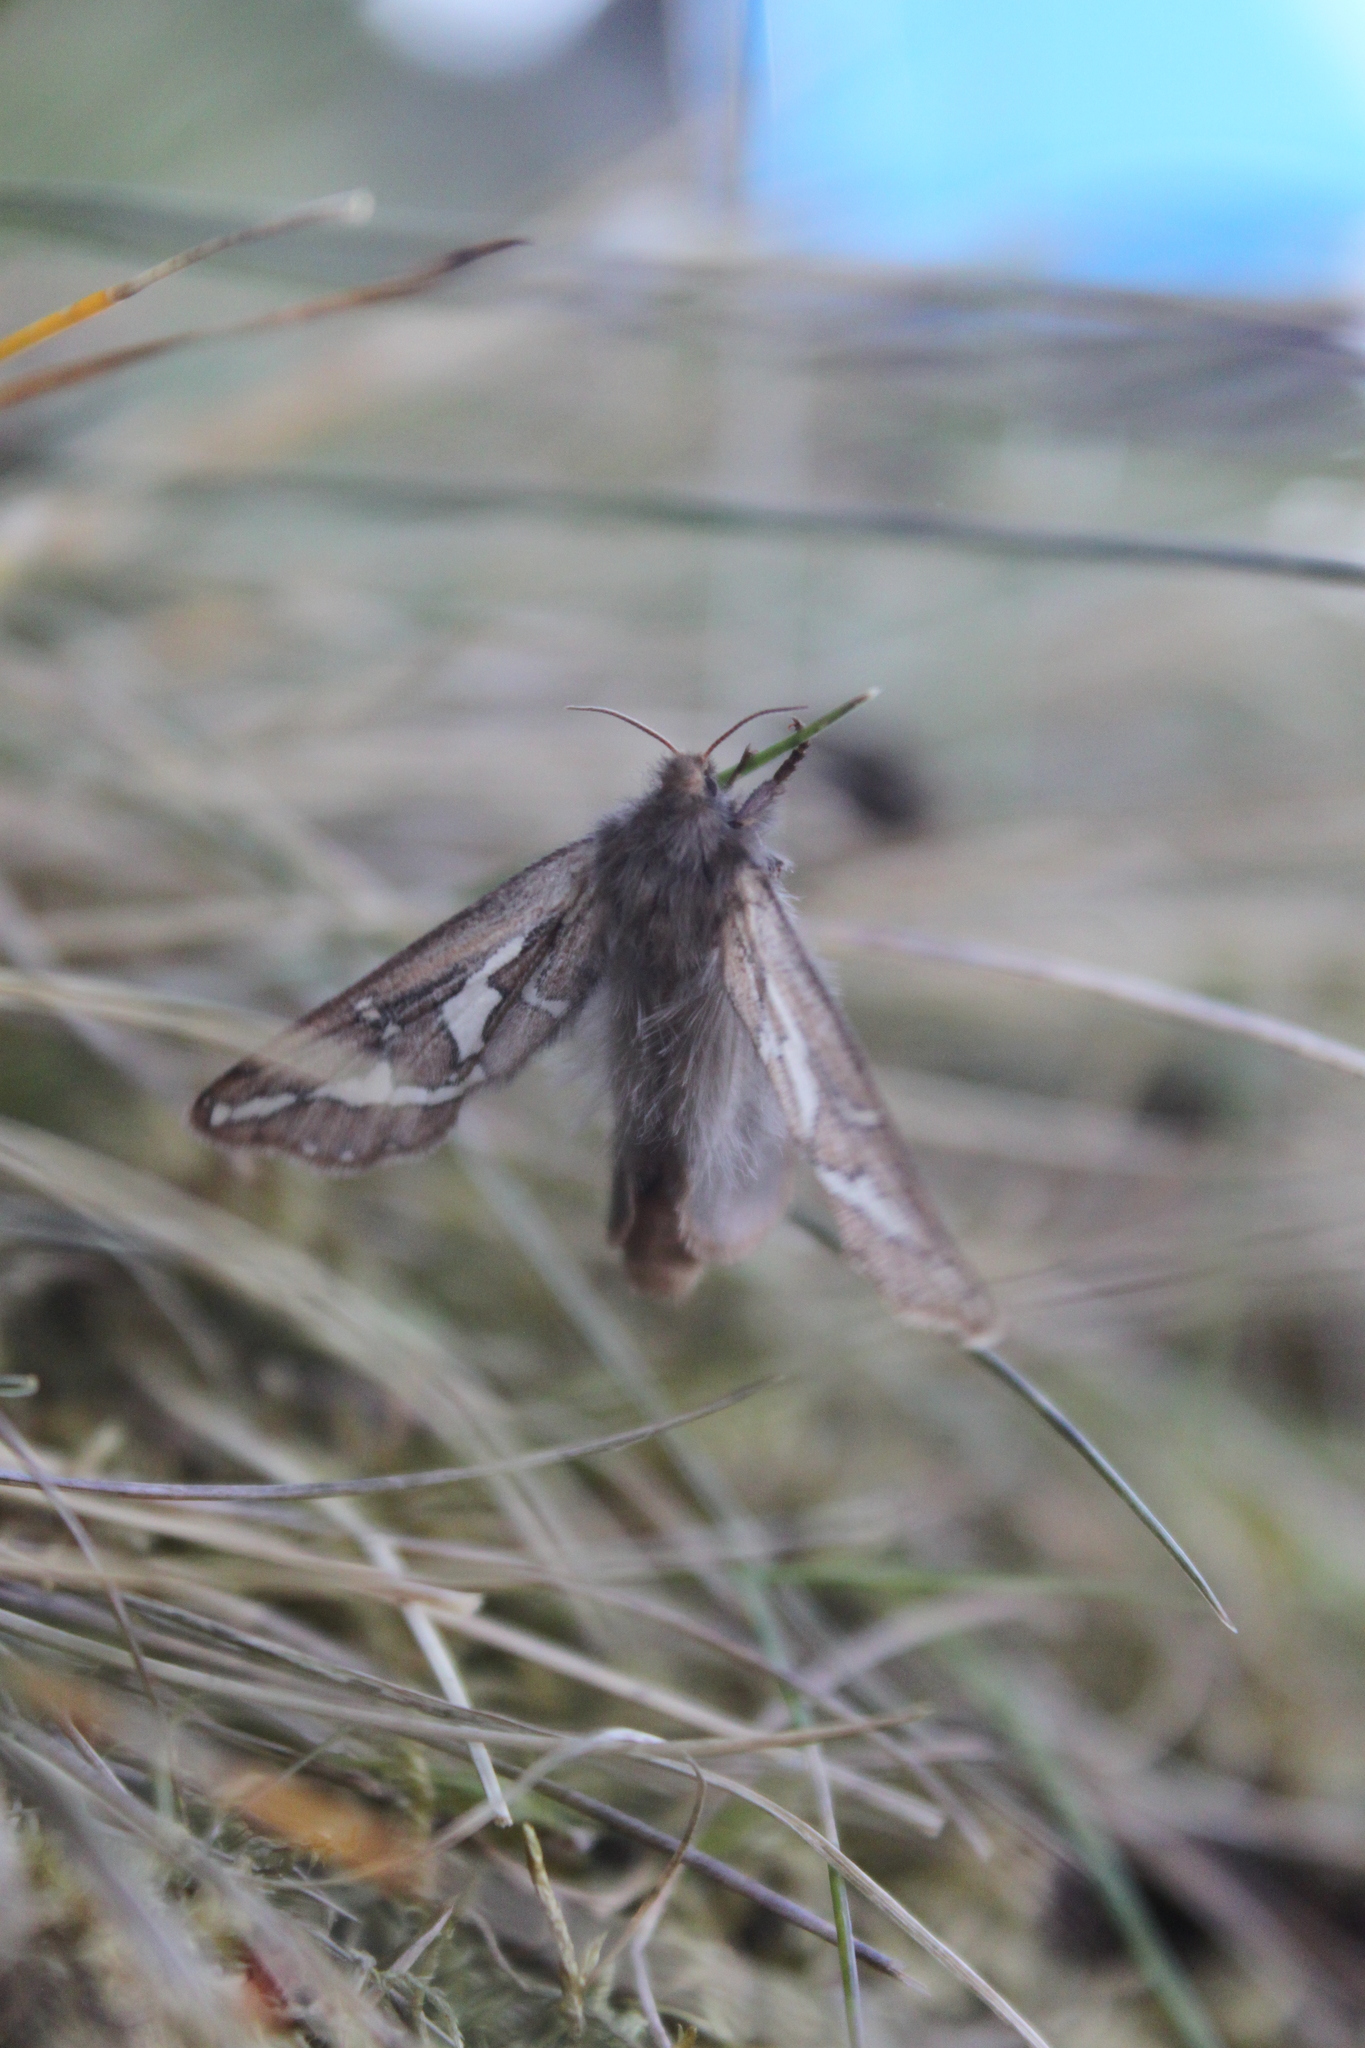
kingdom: Animalia
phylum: Arthropoda
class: Insecta
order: Lepidoptera
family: Hepialidae
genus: Gazoryctra
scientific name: Gazoryctra ganna
